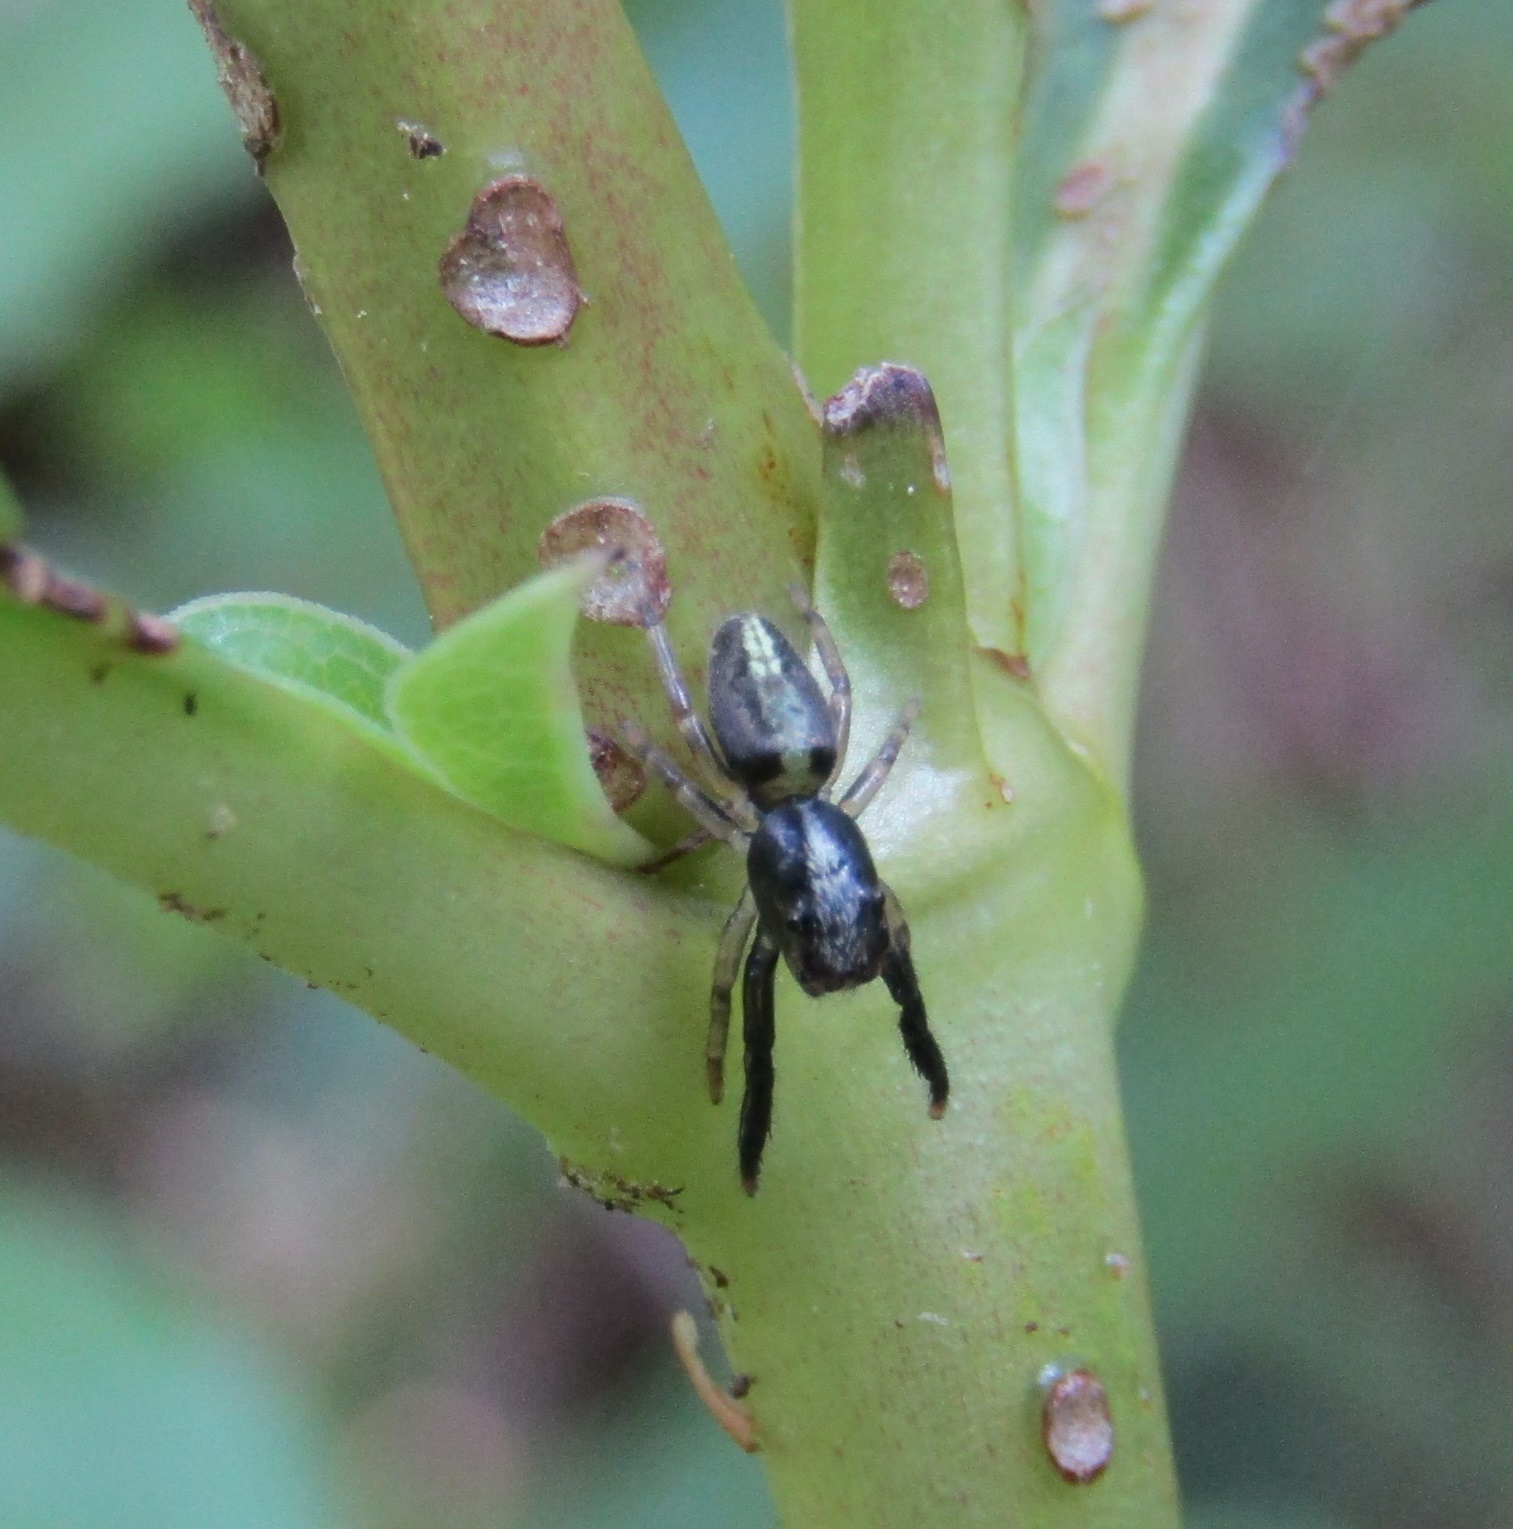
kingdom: Animalia
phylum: Arthropoda
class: Arachnida
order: Araneae
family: Salticidae
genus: Trite
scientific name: Trite planiceps
